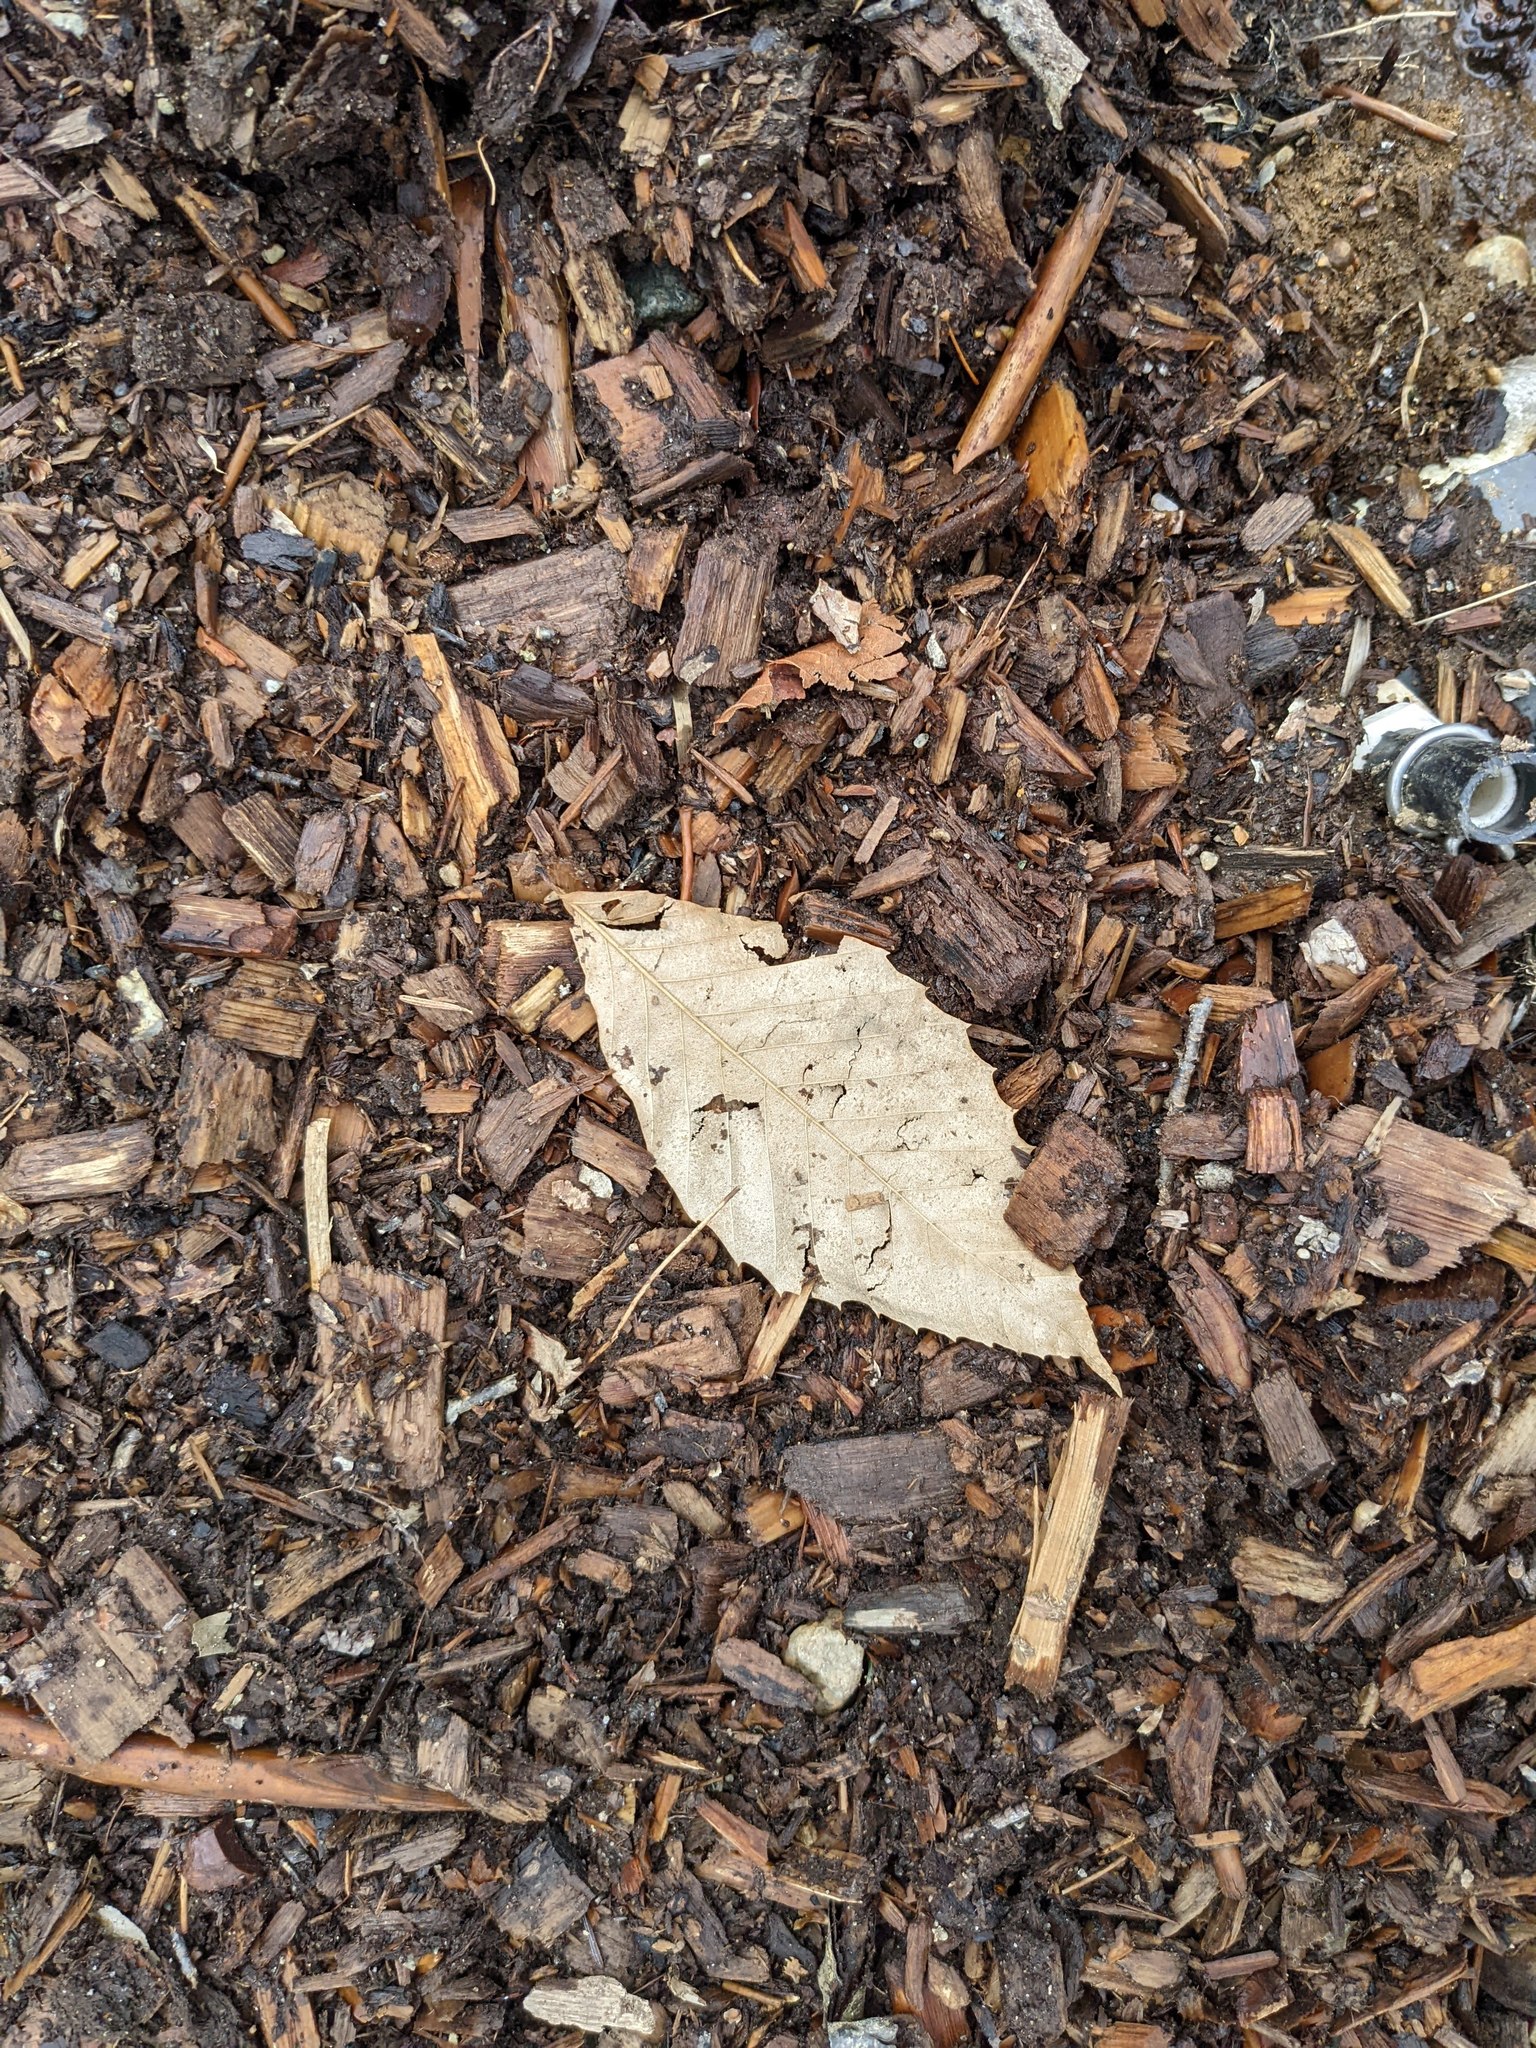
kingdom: Plantae
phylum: Tracheophyta
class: Magnoliopsida
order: Fagales
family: Fagaceae
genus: Fagus
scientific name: Fagus grandifolia
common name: American beech
